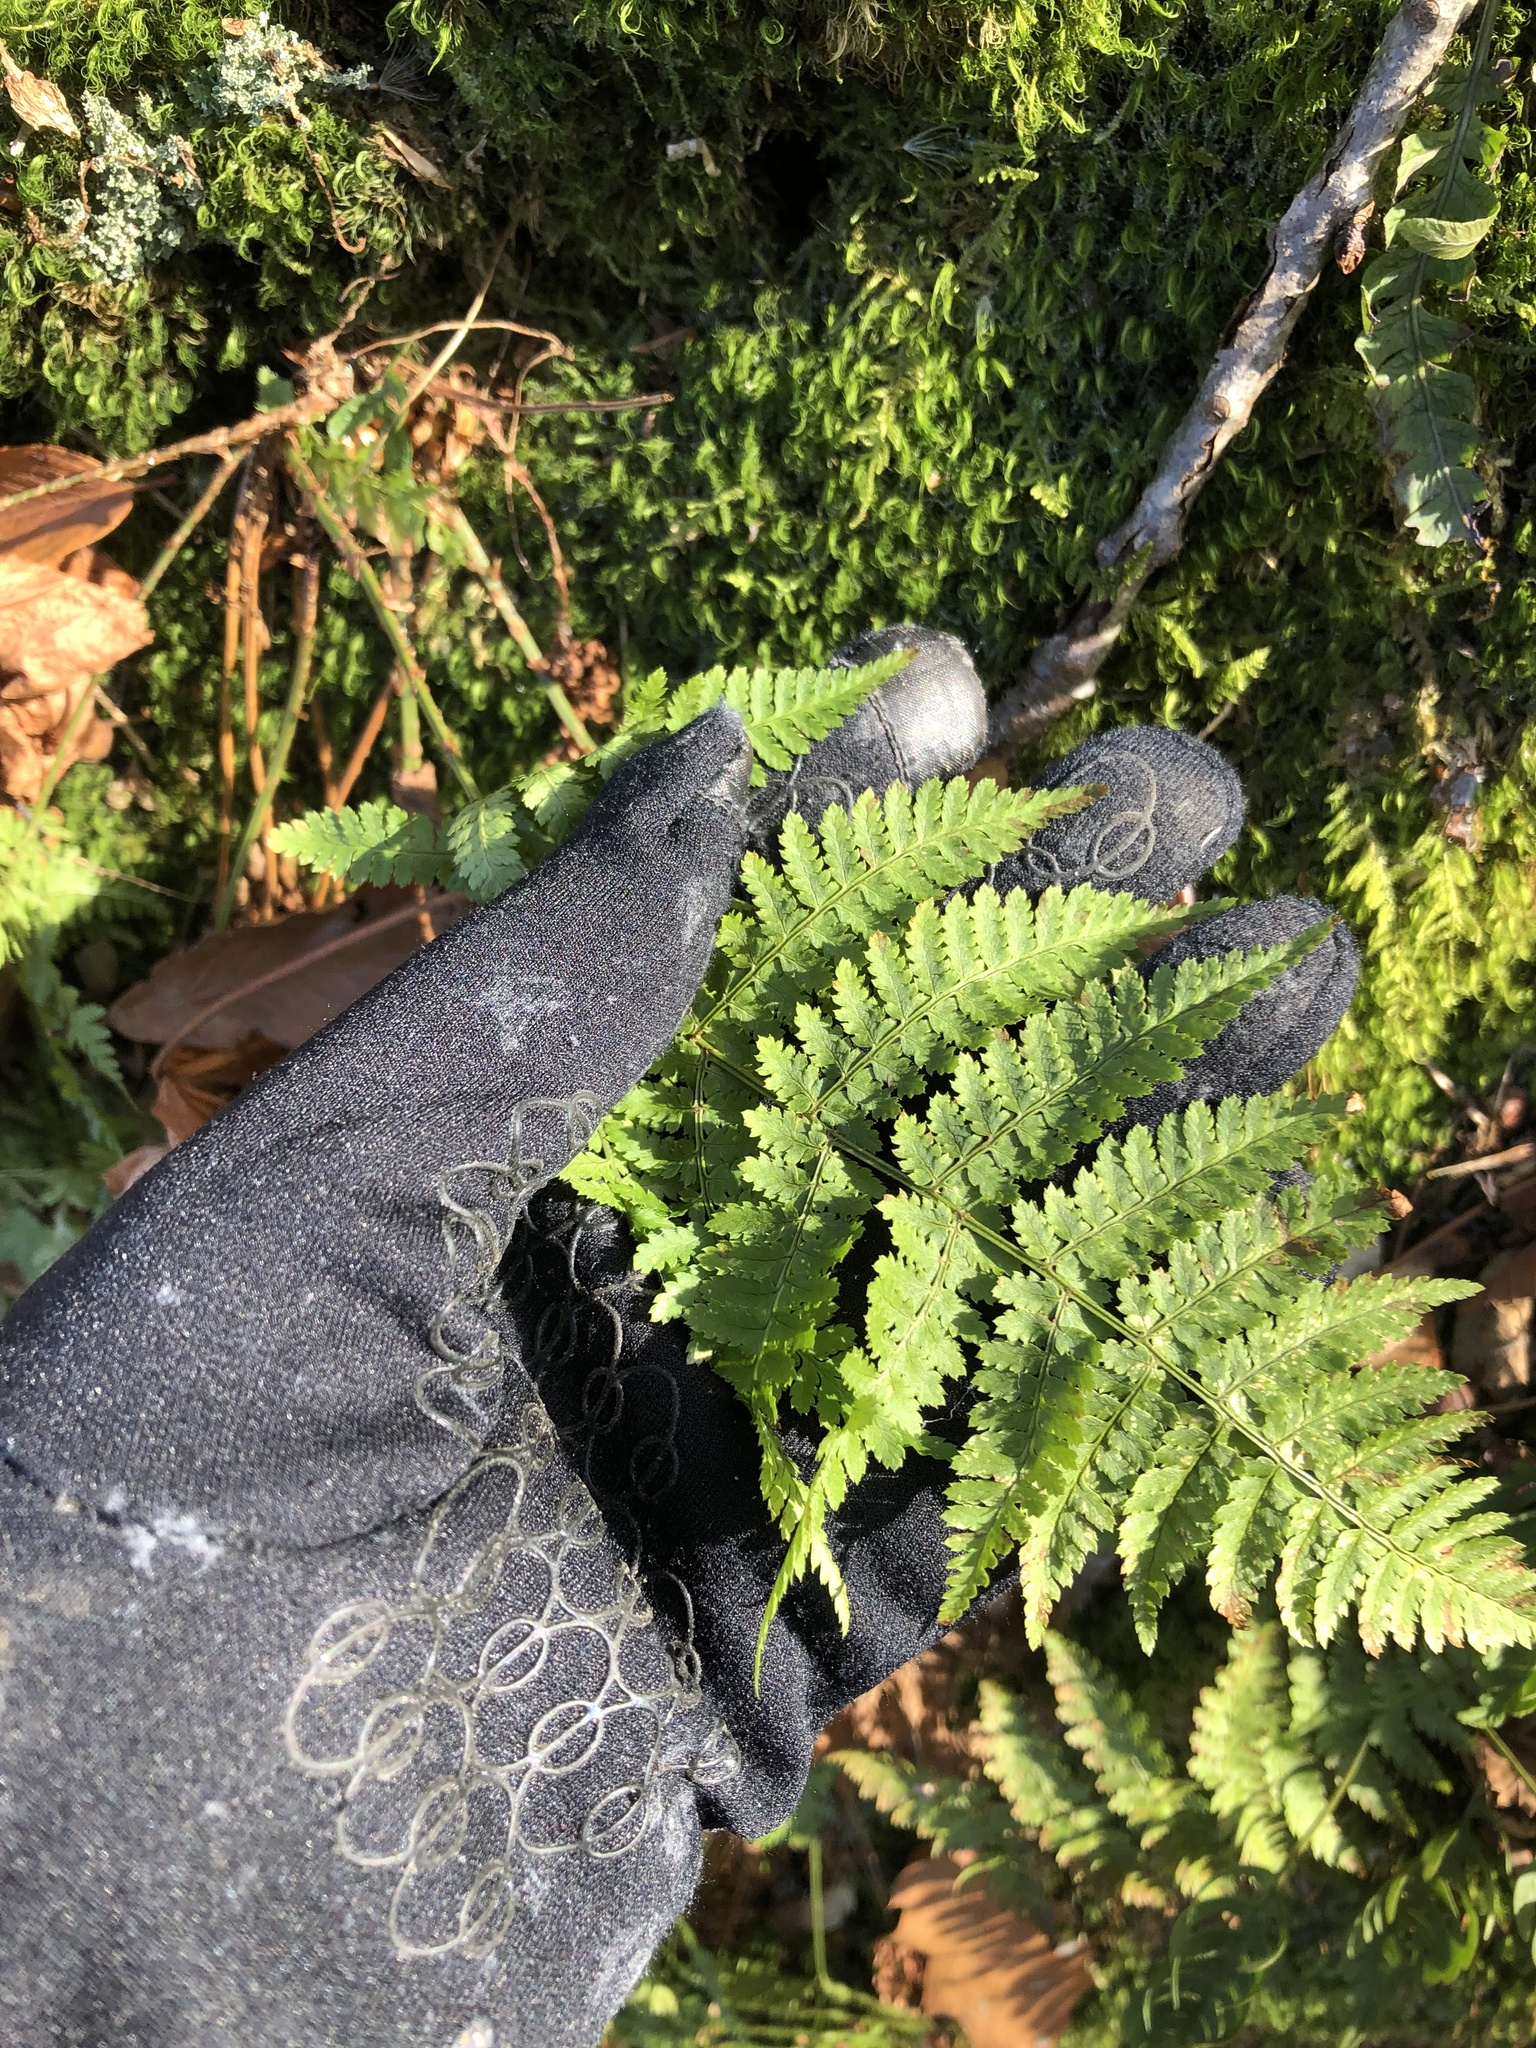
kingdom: Plantae
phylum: Tracheophyta
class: Polypodiopsida
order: Polypodiales
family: Dryopteridaceae
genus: Dryopteris
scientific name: Dryopteris intermedia
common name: Evergreen wood fern
